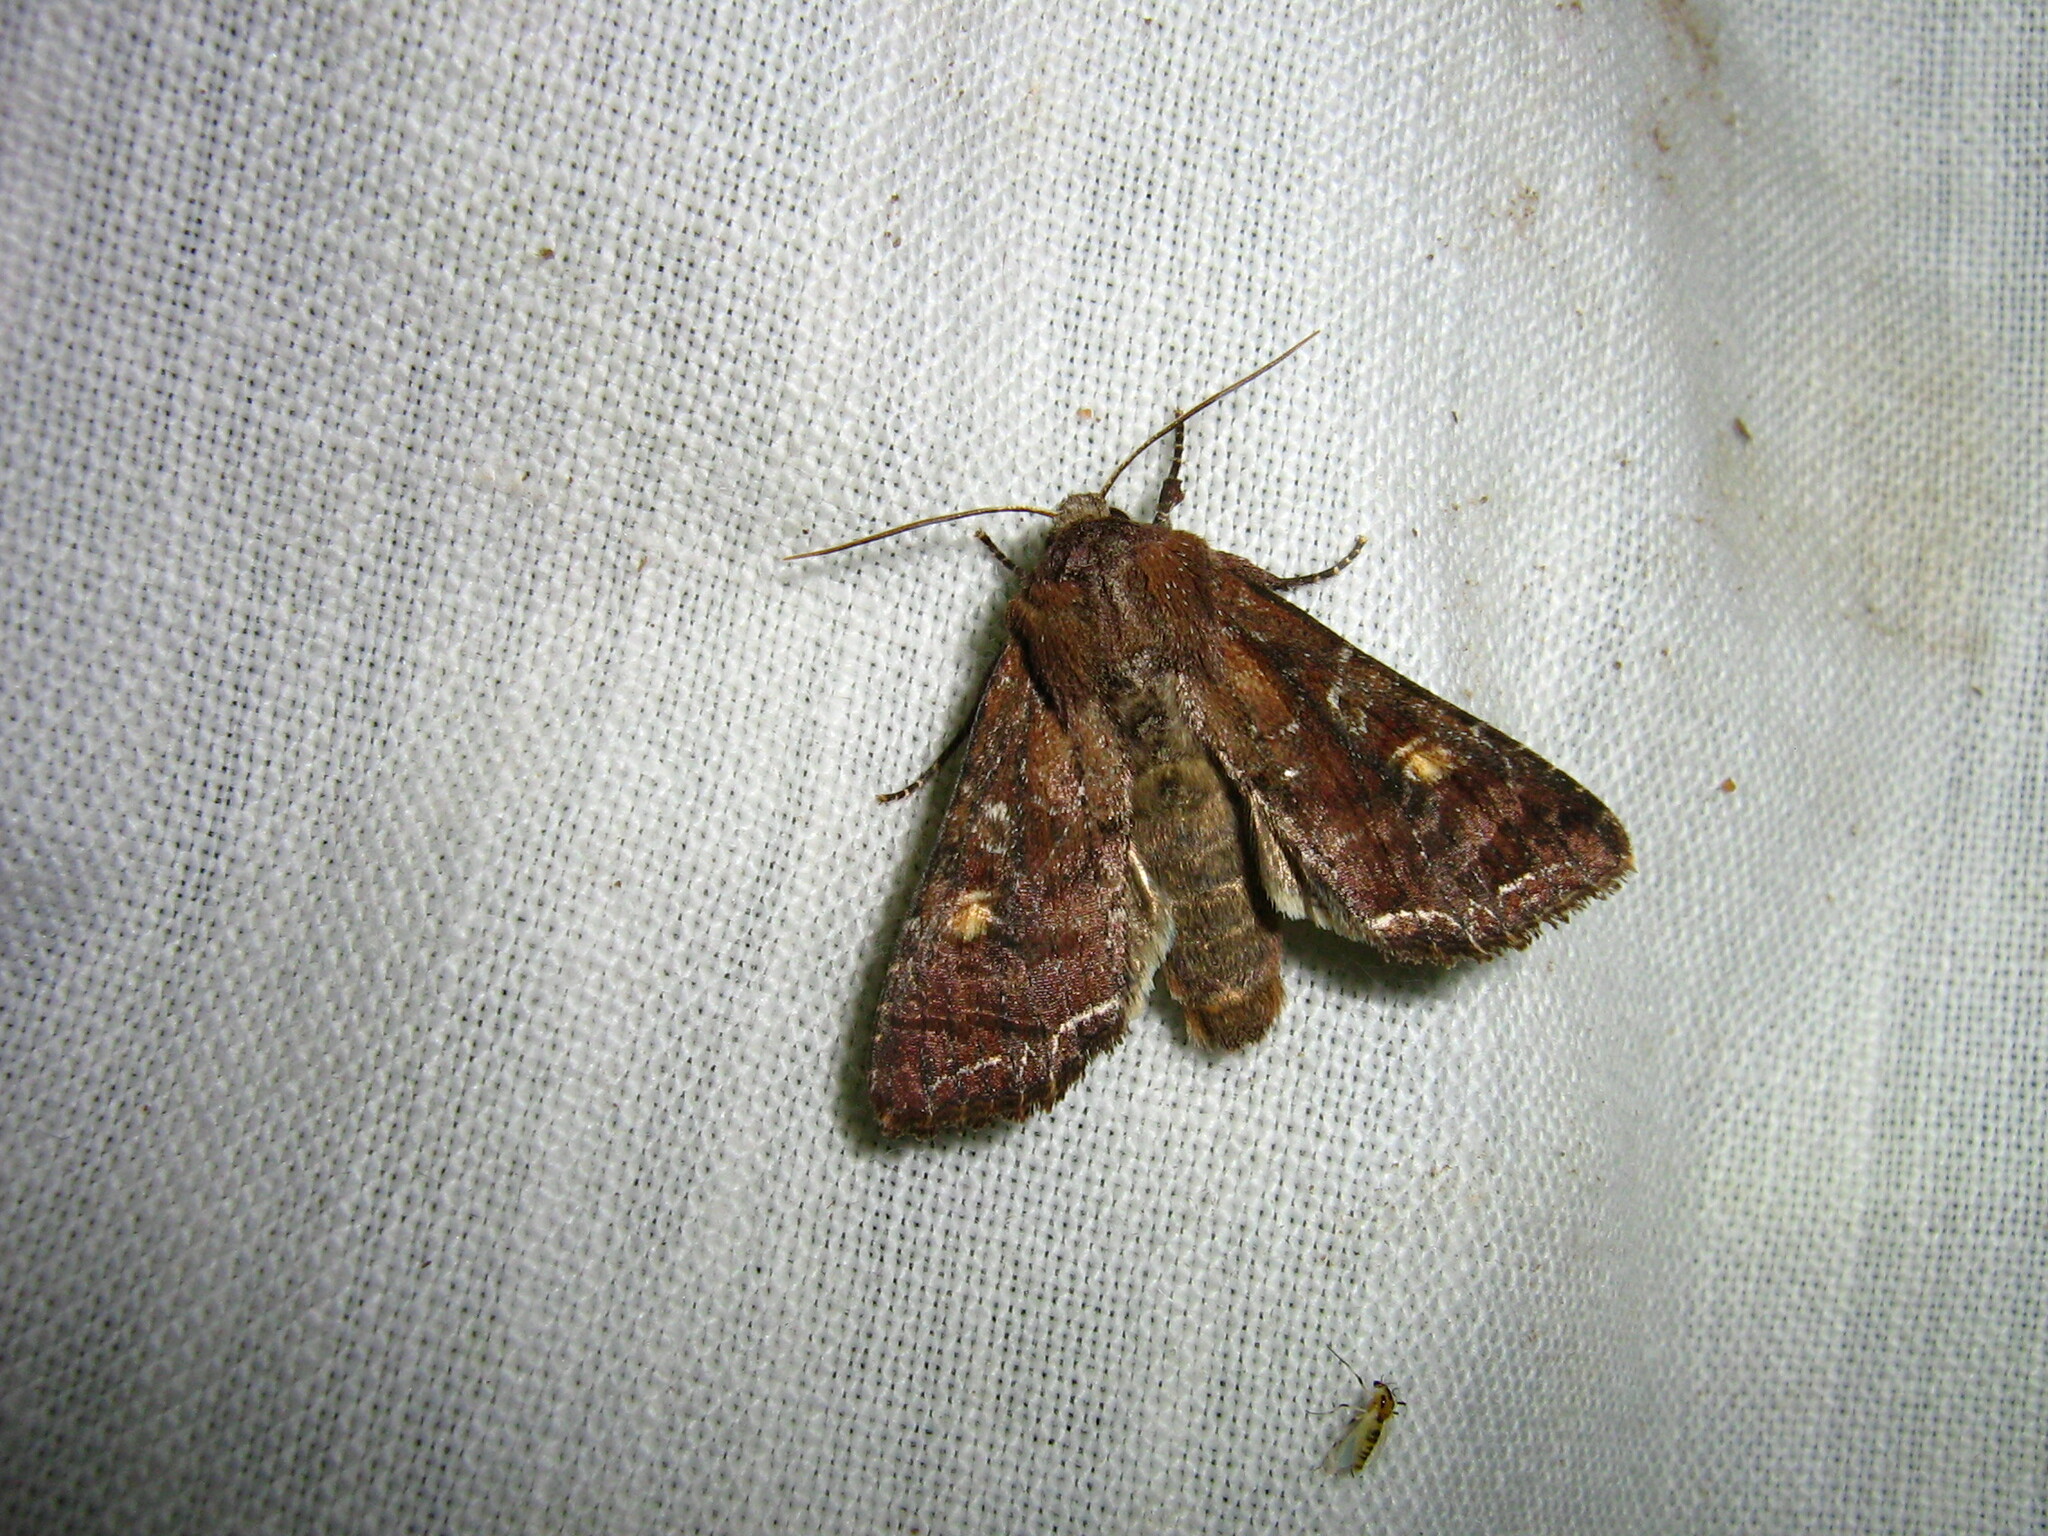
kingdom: Animalia
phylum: Arthropoda
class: Insecta
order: Lepidoptera
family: Noctuidae
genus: Lacanobia
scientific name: Lacanobia oleracea
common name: Bright-line brown-eye
